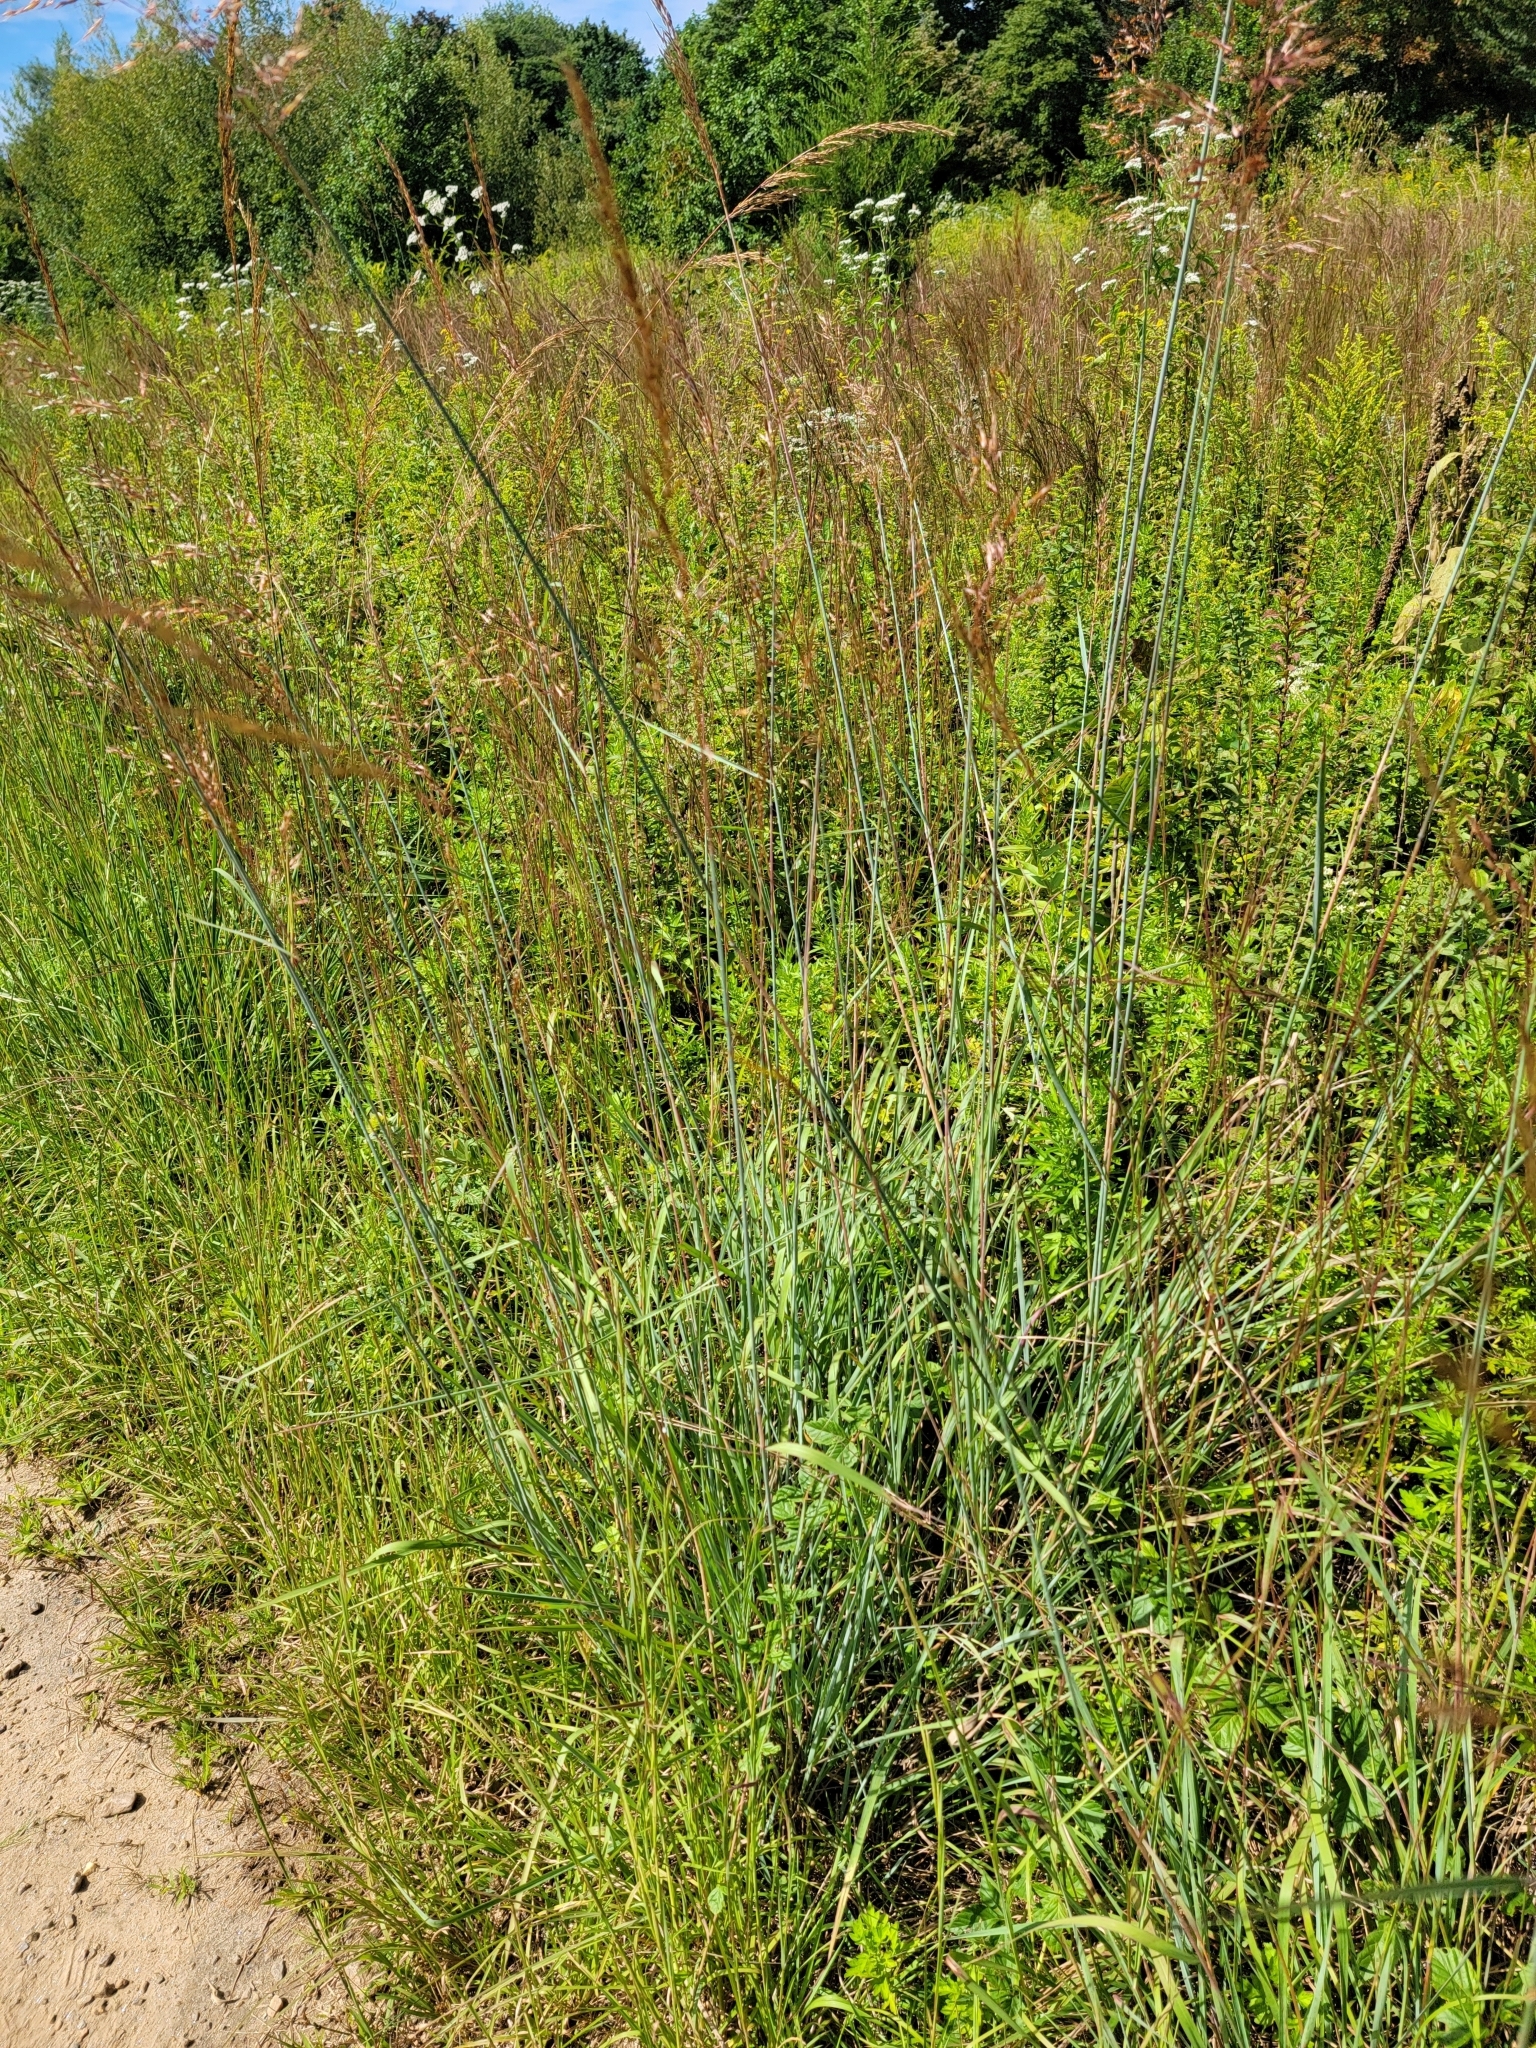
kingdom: Plantae
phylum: Tracheophyta
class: Liliopsida
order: Poales
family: Poaceae
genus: Sorghastrum
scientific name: Sorghastrum nutans
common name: Indian grass
